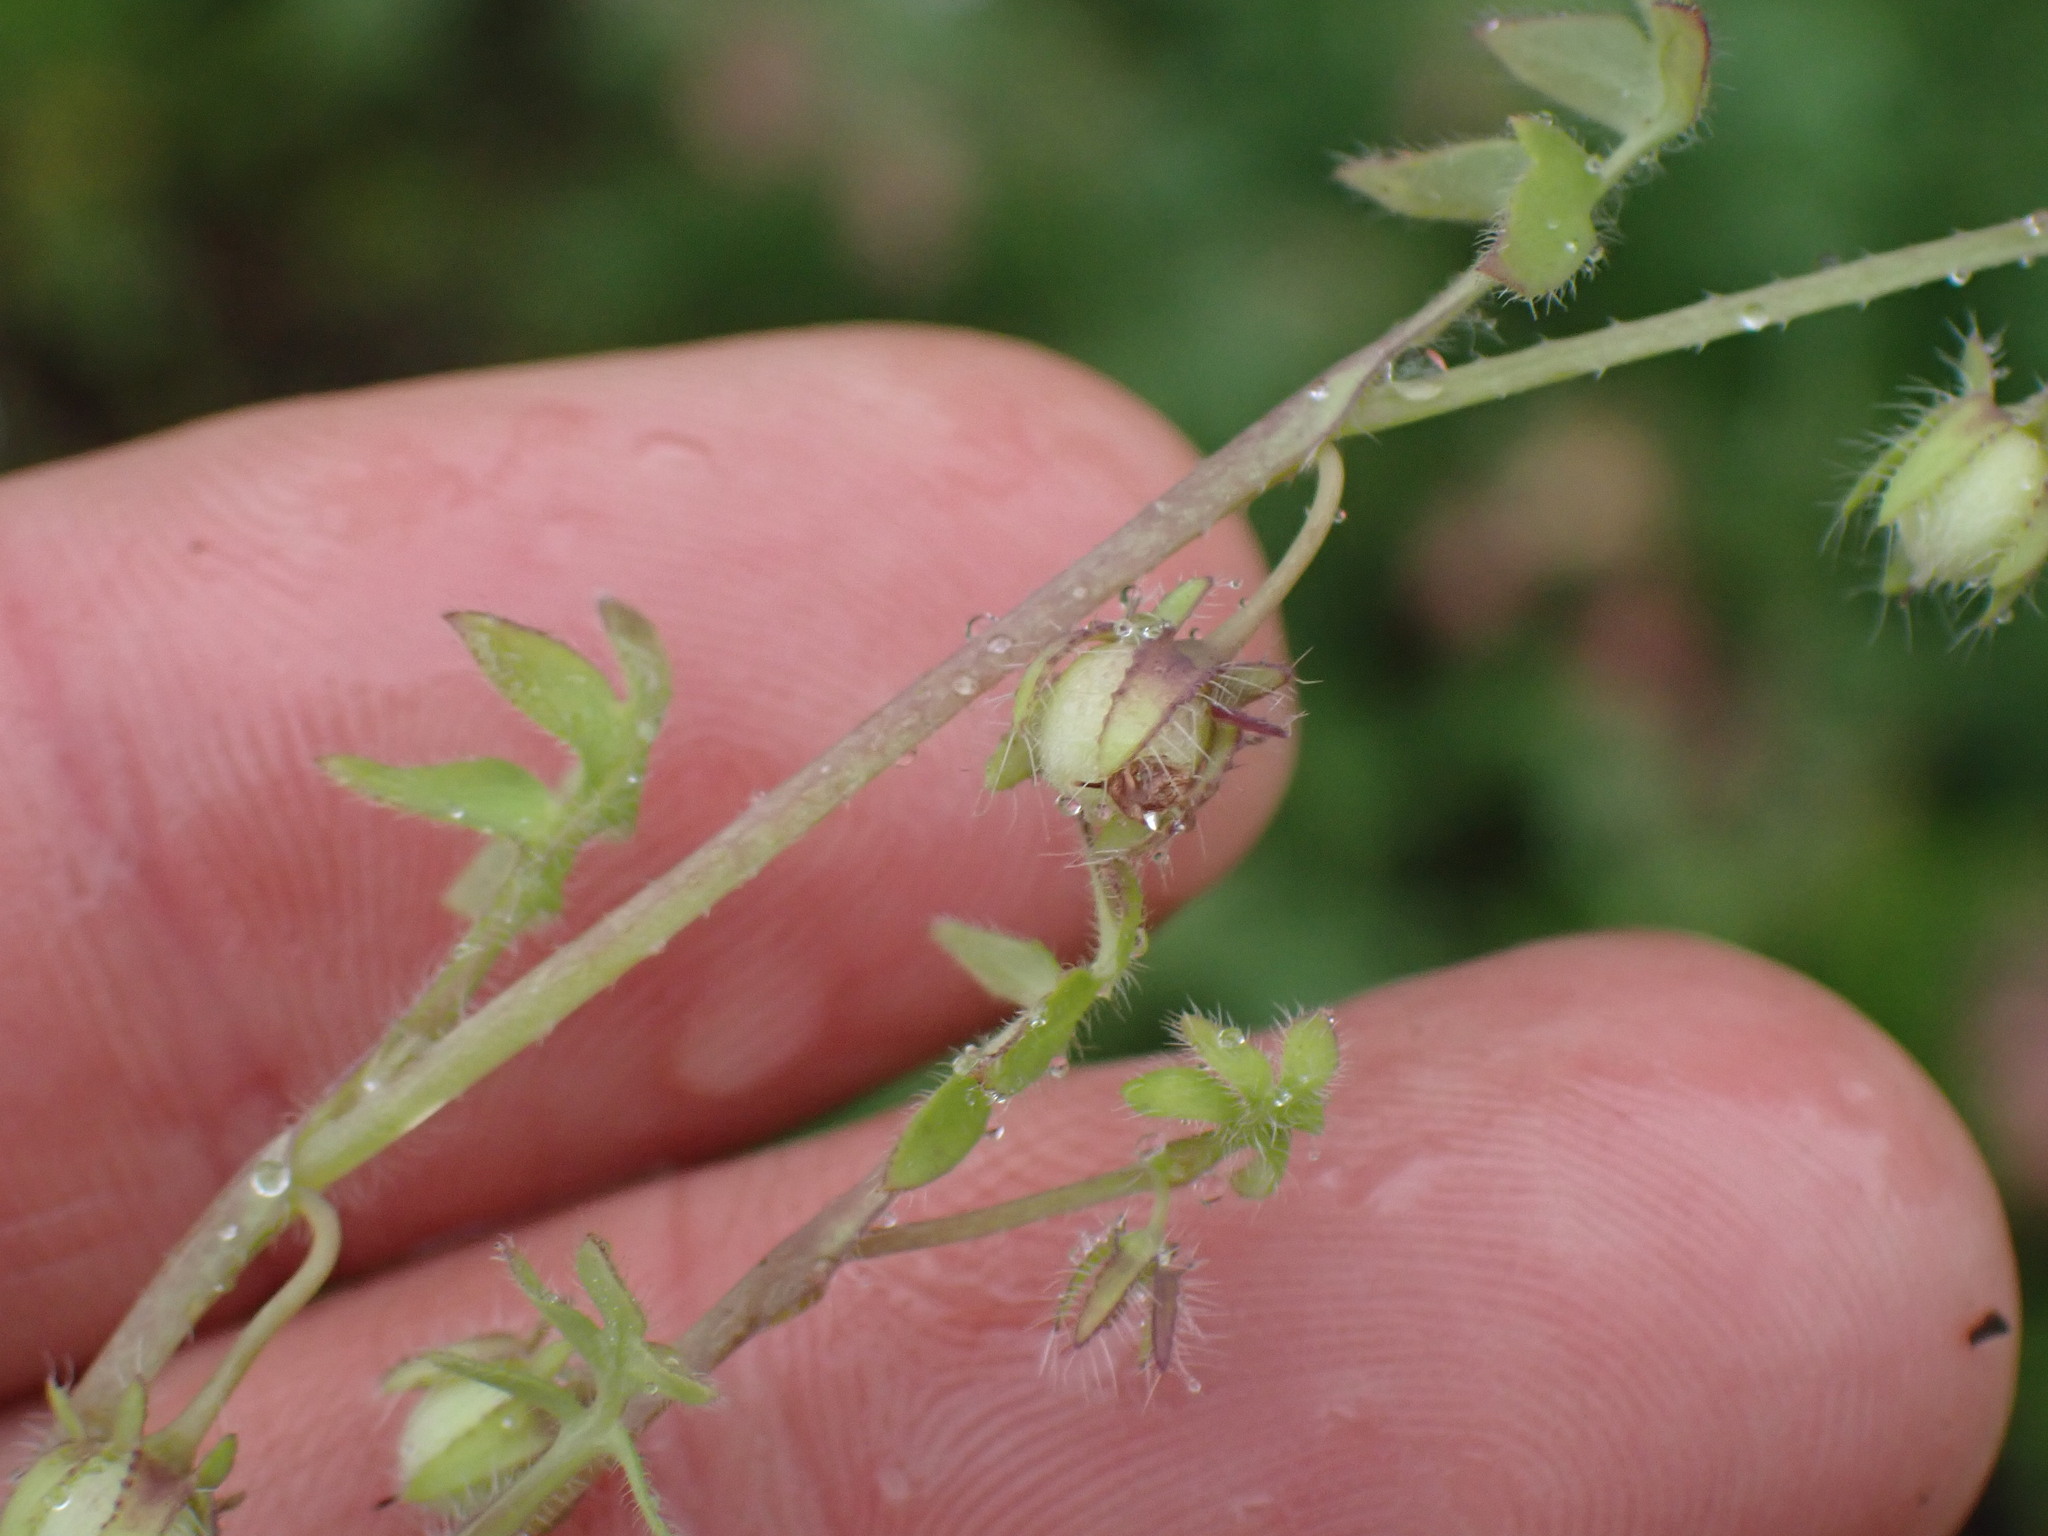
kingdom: Plantae
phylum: Tracheophyta
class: Magnoliopsida
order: Boraginales
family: Hydrophyllaceae
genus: Nemophila
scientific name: Nemophila breviflora
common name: Great basin baby-blue-eyes
